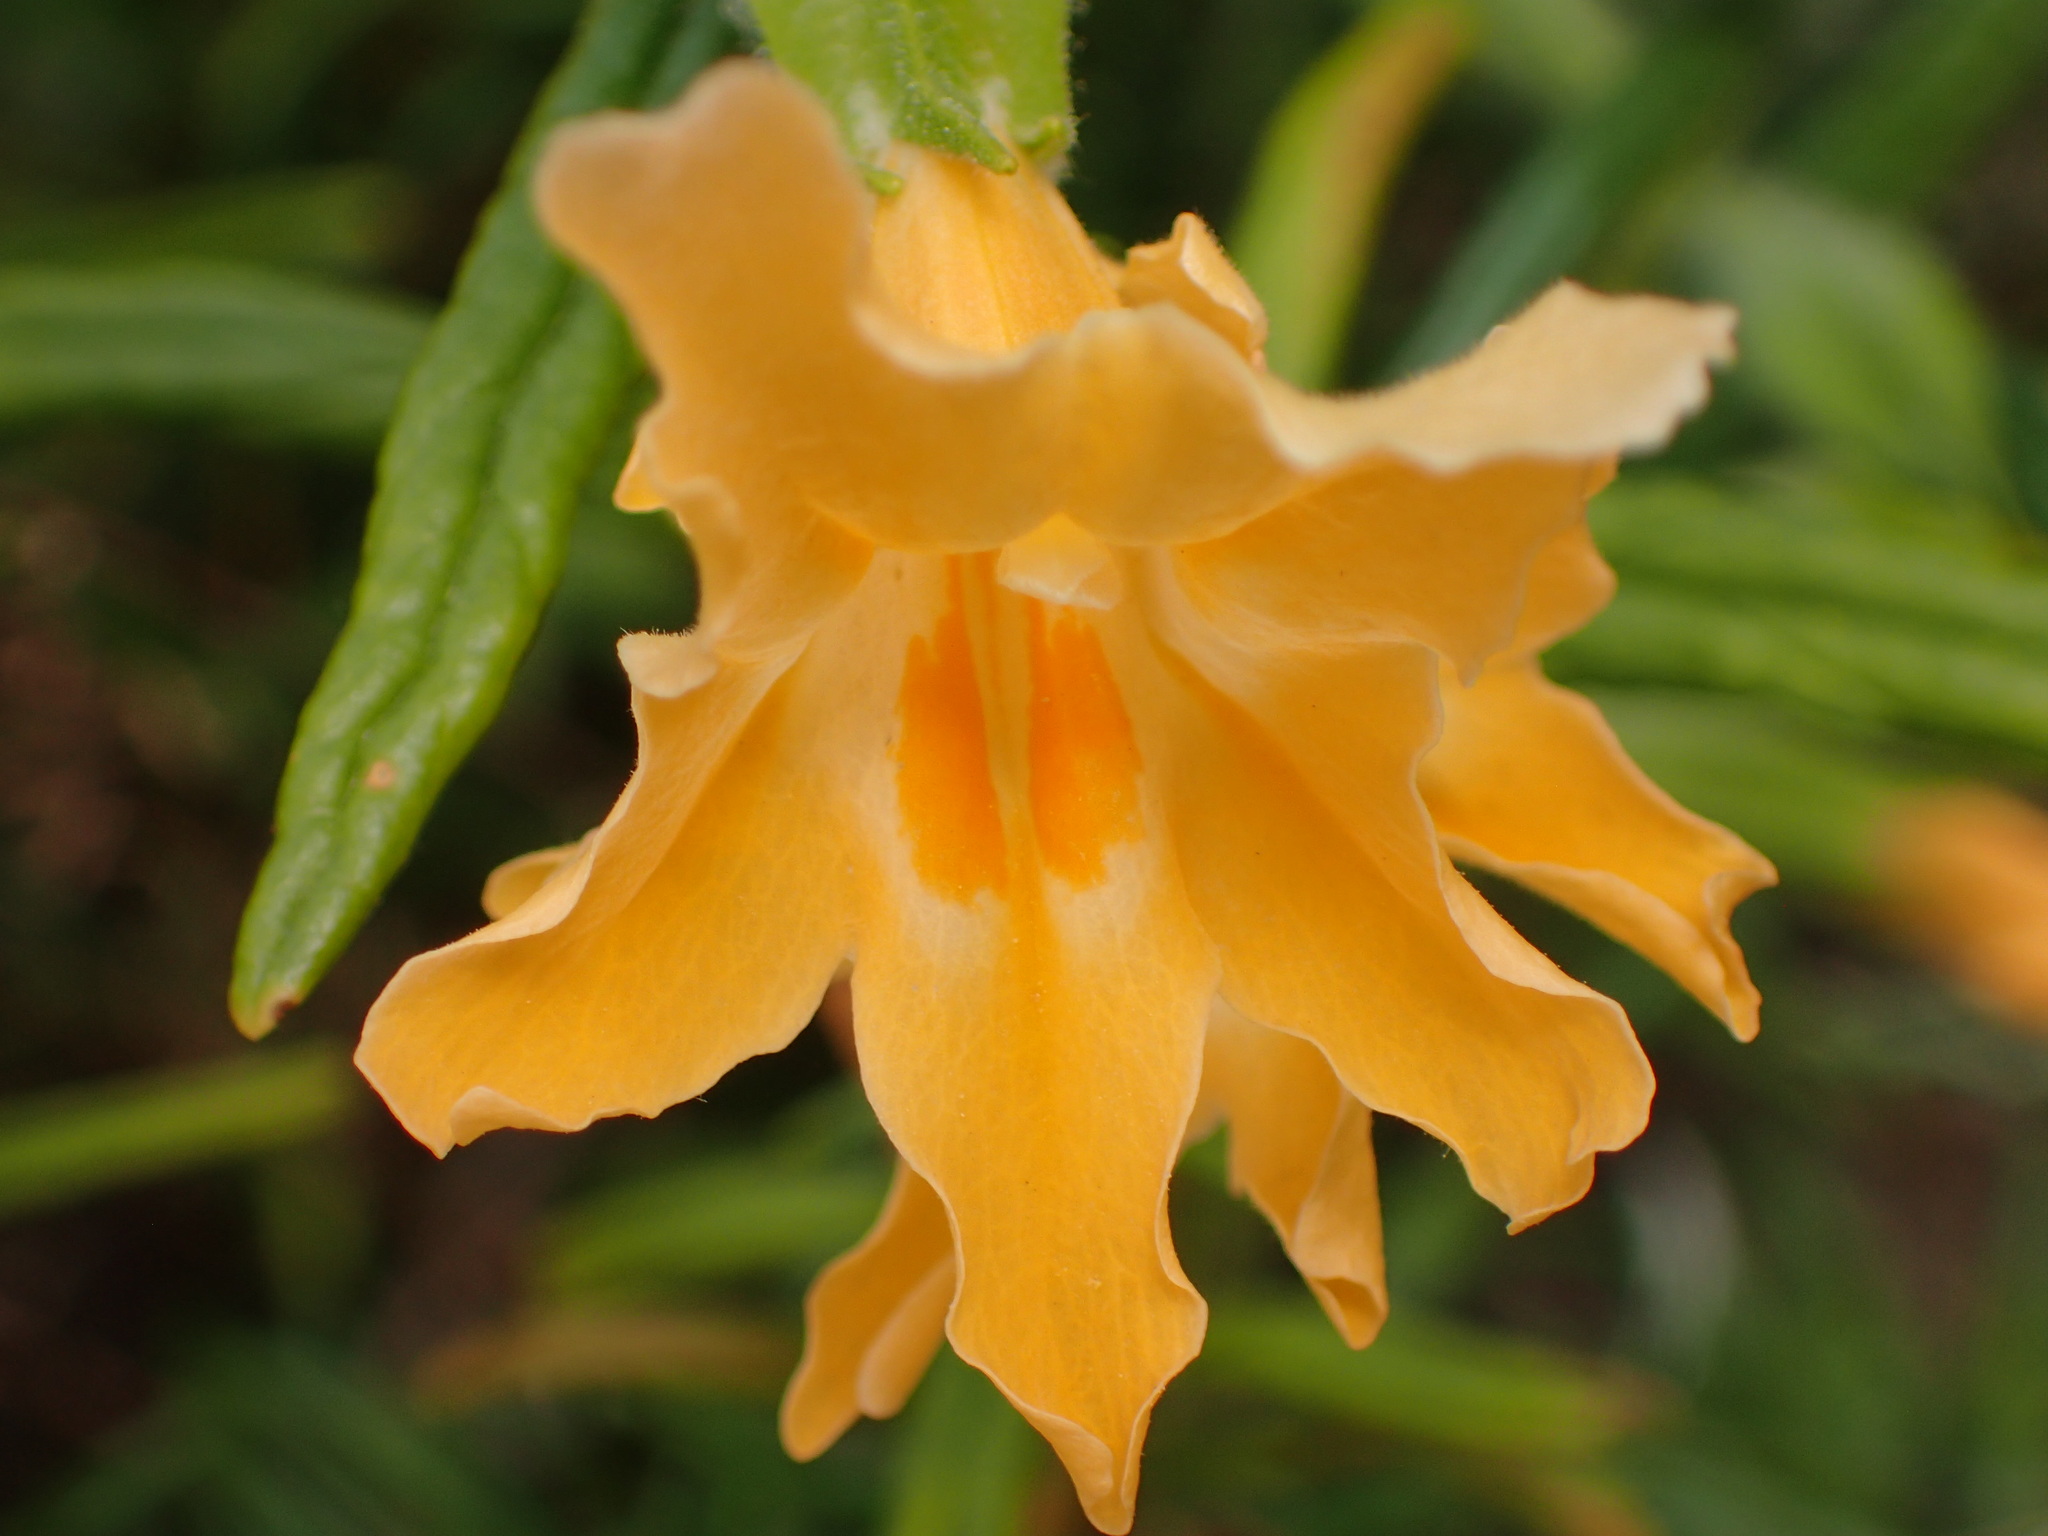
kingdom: Plantae
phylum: Tracheophyta
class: Magnoliopsida
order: Lamiales
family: Phrymaceae
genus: Diplacus
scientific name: Diplacus longiflorus
